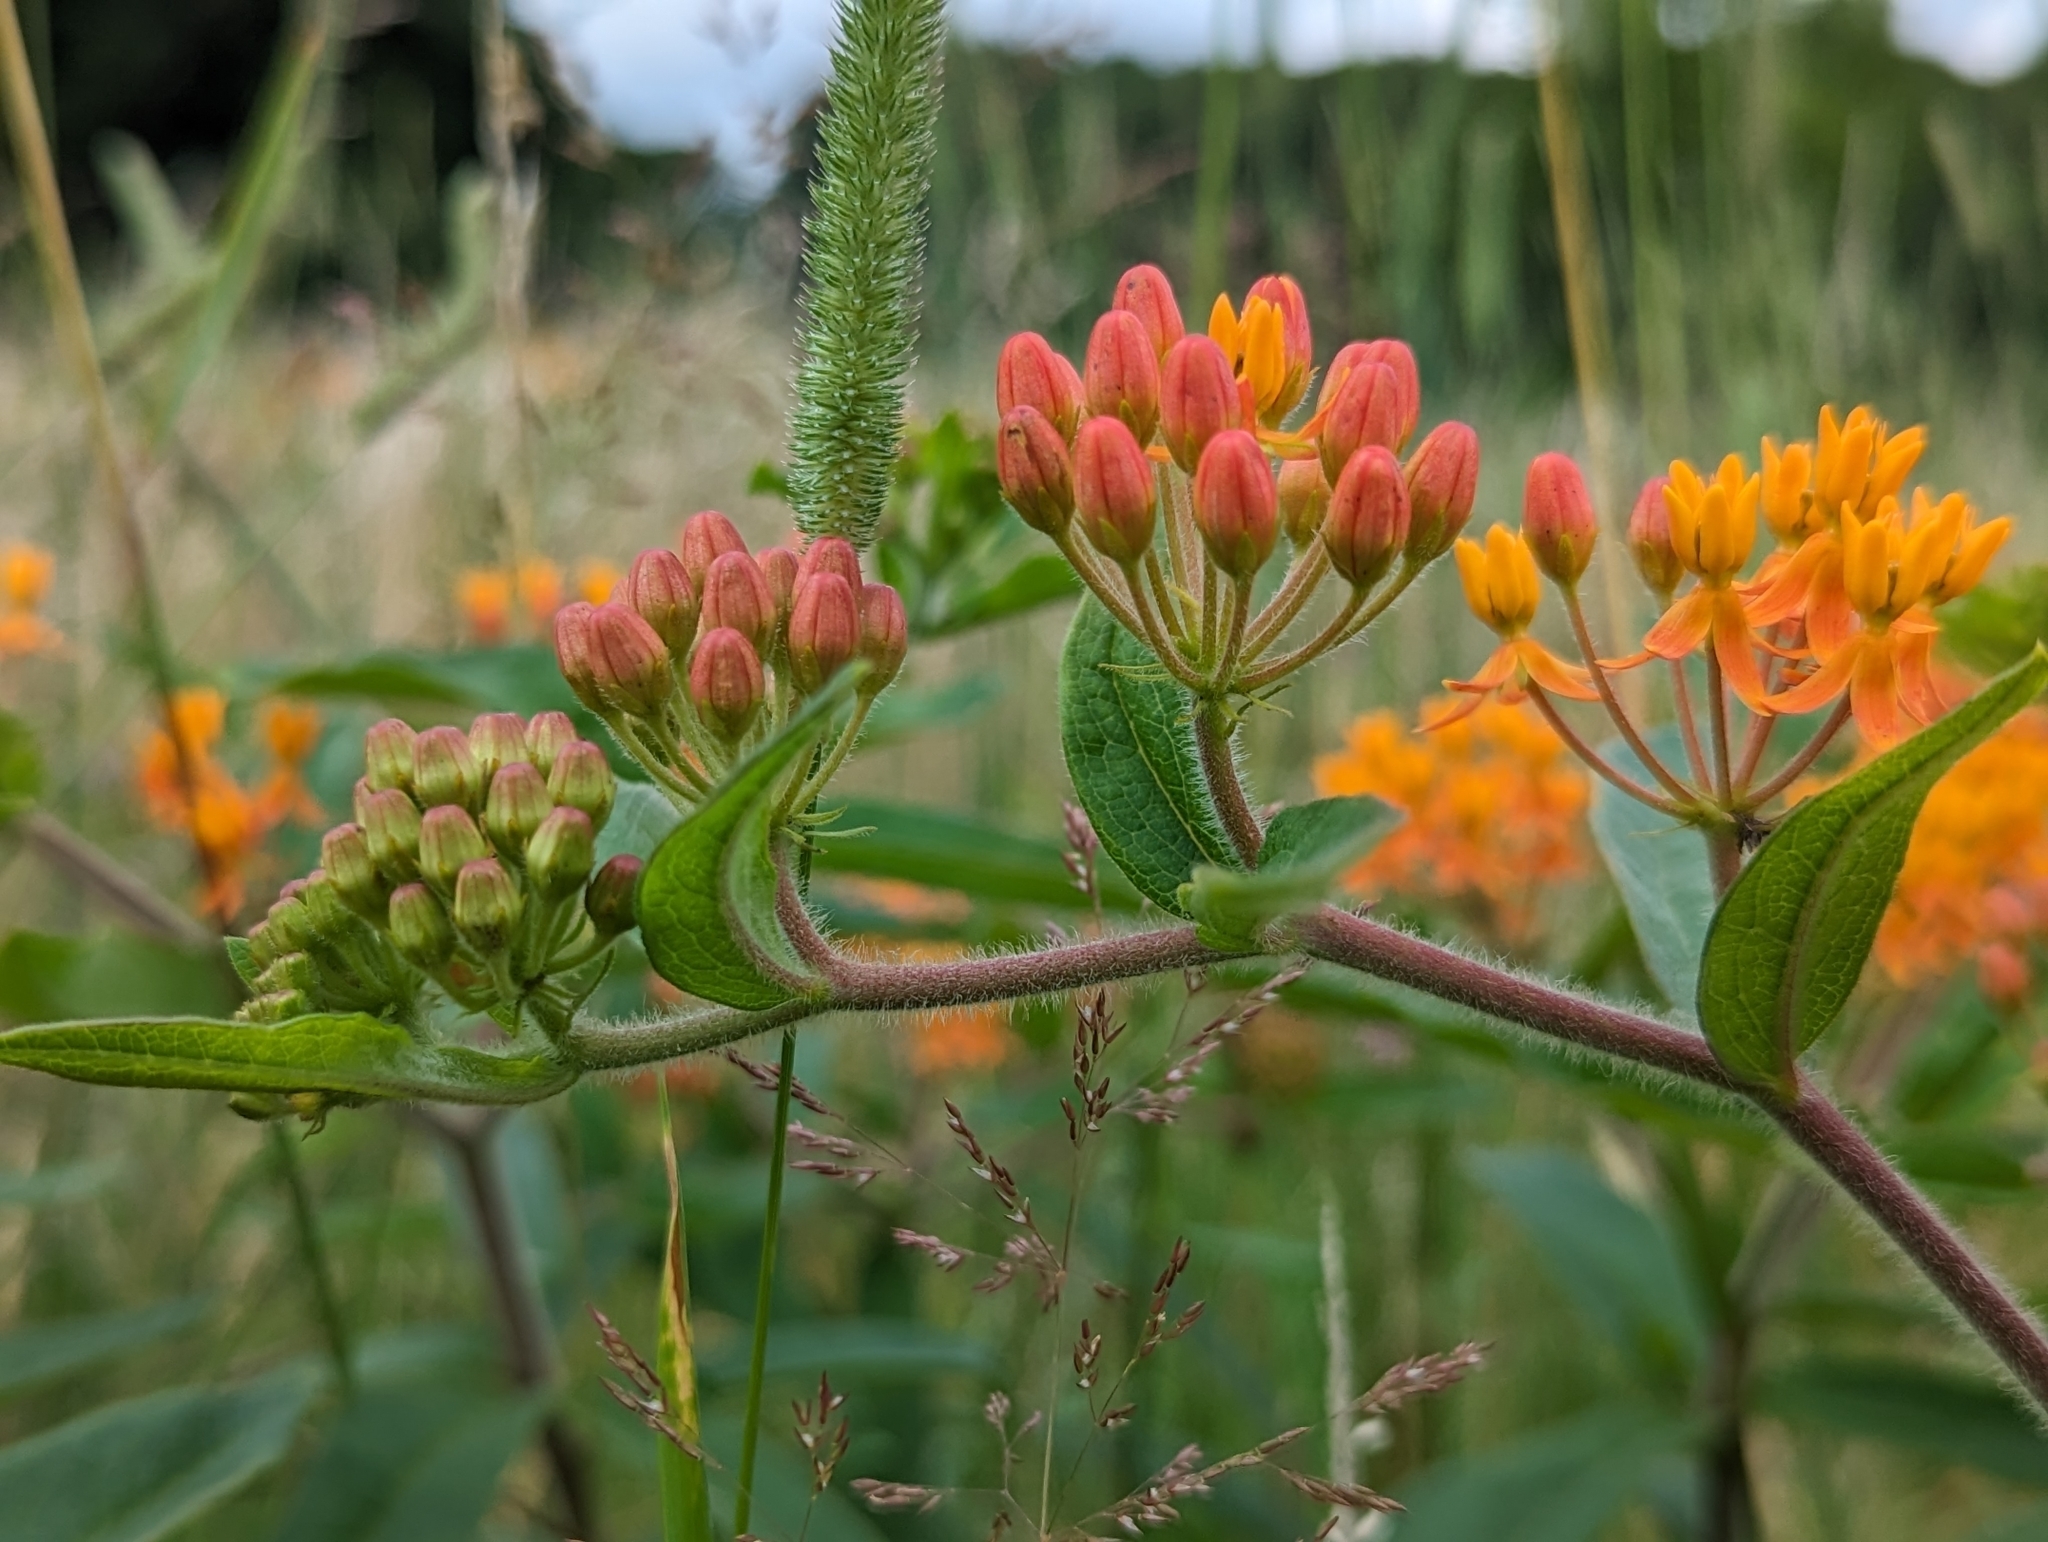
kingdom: Plantae
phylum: Tracheophyta
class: Magnoliopsida
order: Gentianales
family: Apocynaceae
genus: Asclepias
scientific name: Asclepias tuberosa
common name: Butterfly milkweed
